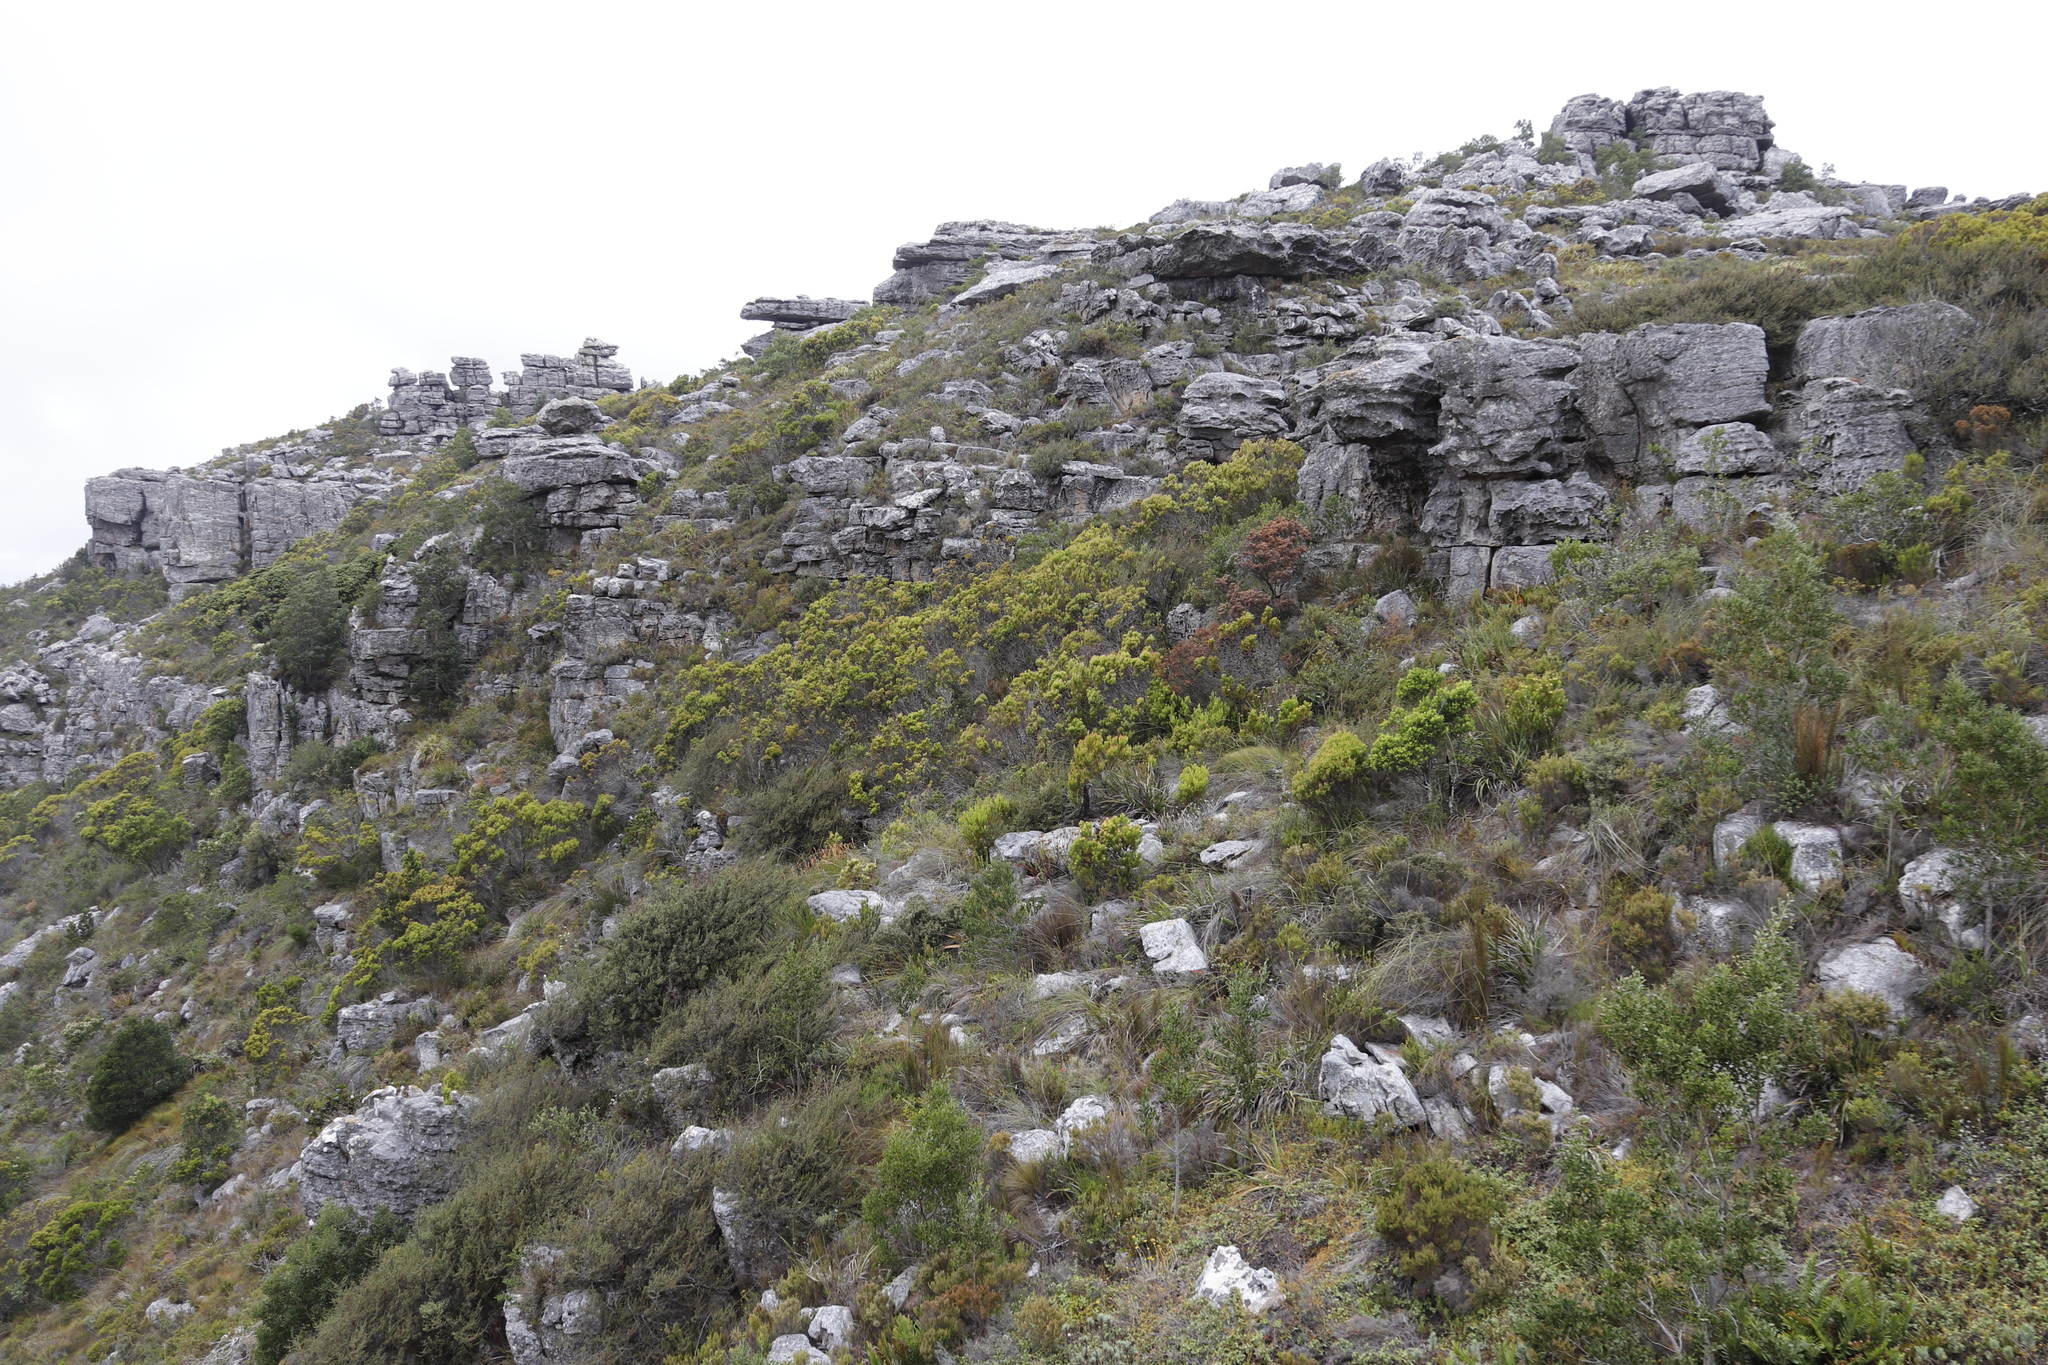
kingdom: Plantae
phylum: Tracheophyta
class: Magnoliopsida
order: Proteales
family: Proteaceae
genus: Leucadendron
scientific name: Leucadendron xanthoconus
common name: Sickle-leaf conebush
